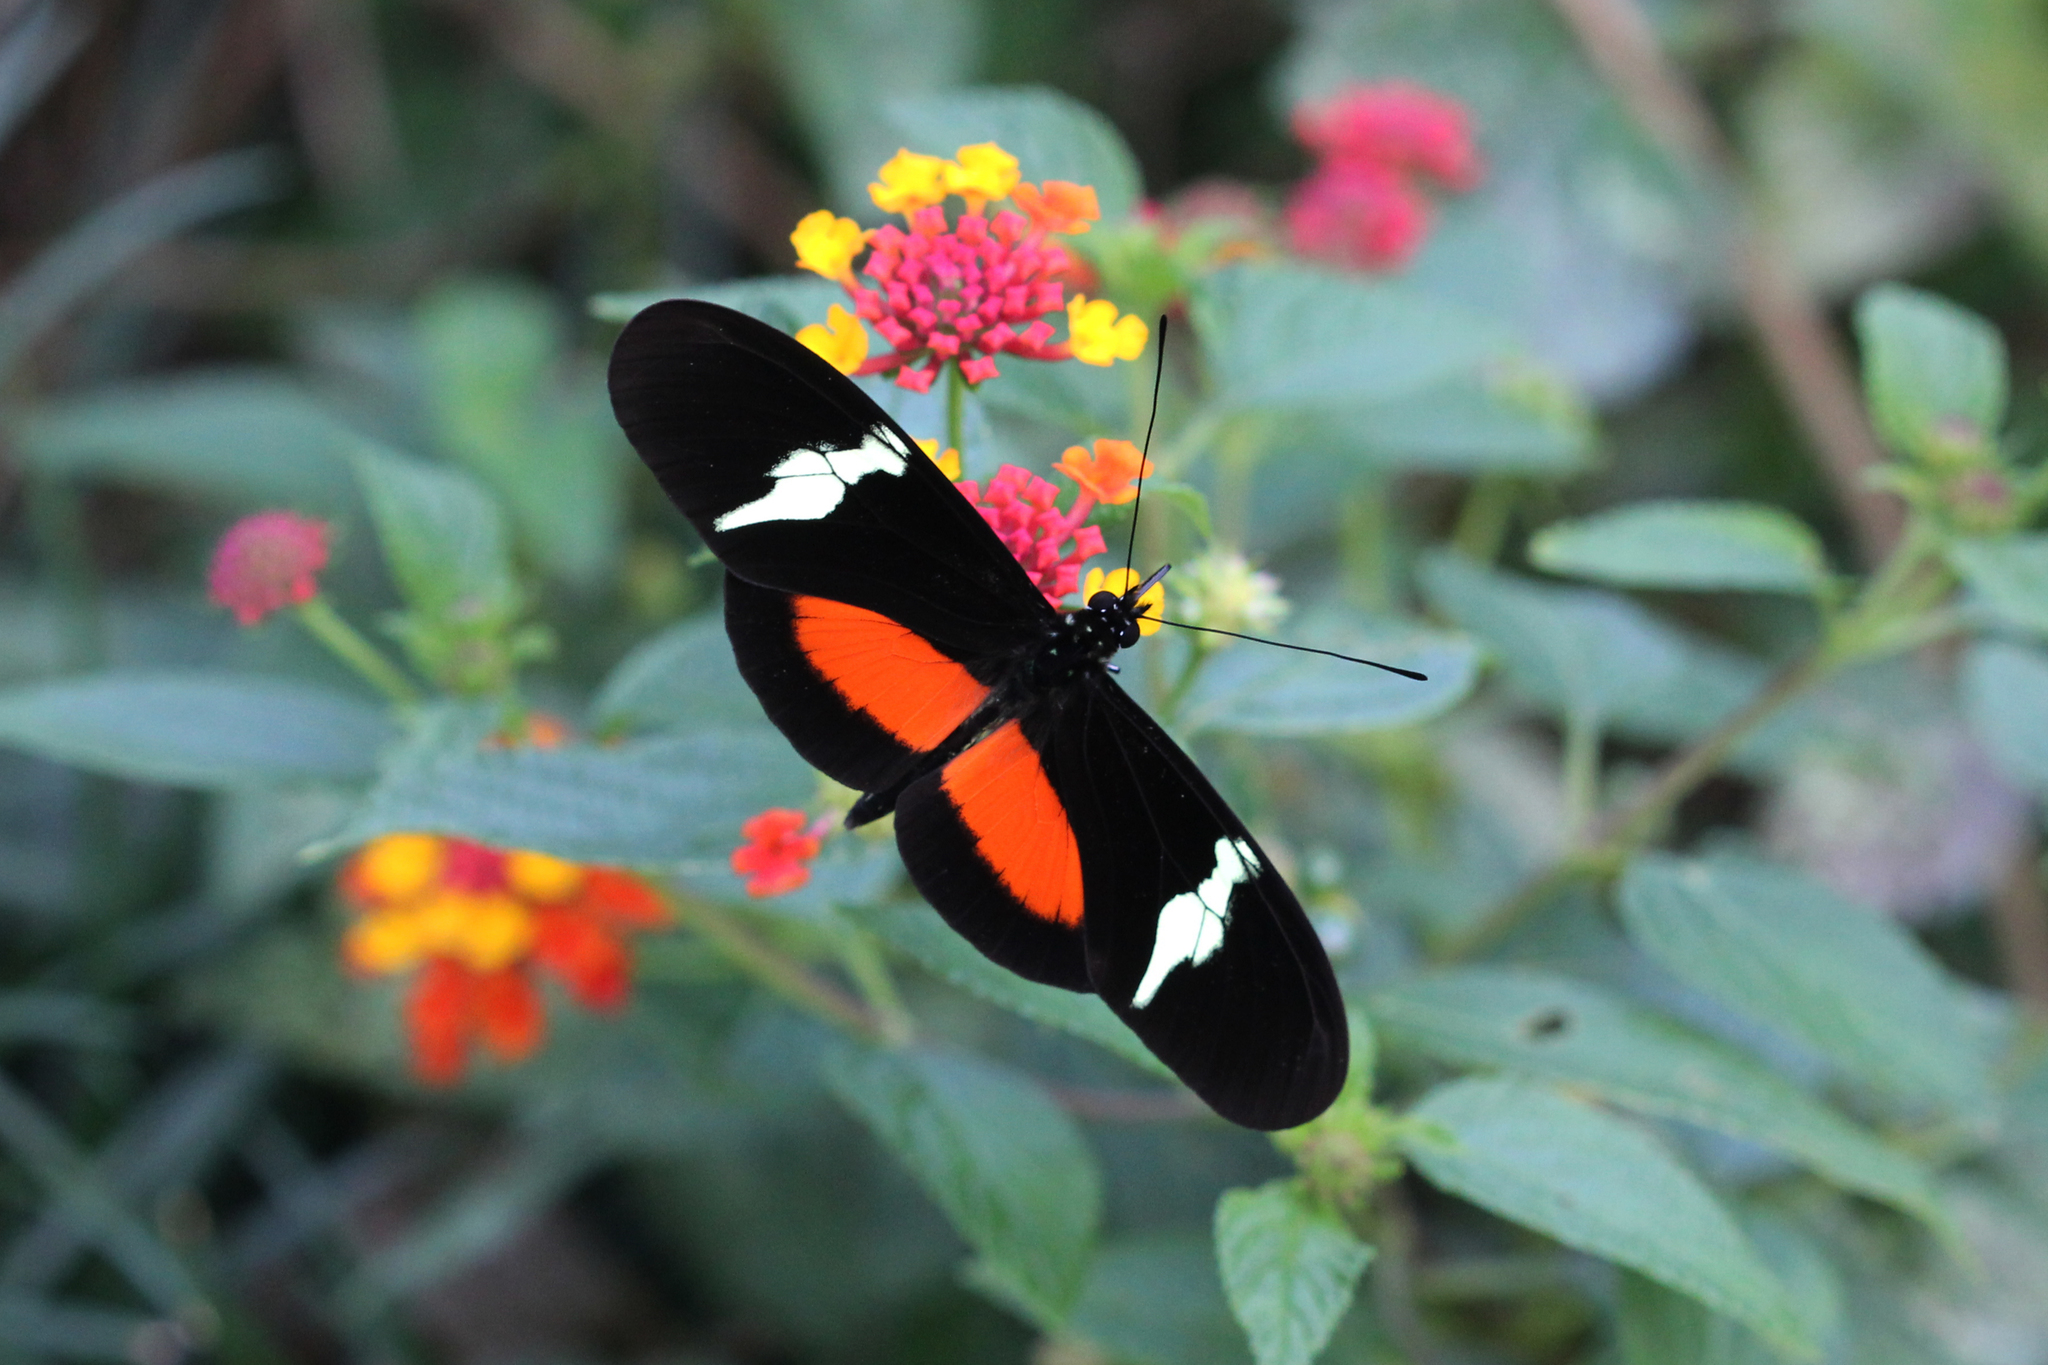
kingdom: Animalia
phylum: Arthropoda
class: Insecta
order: Lepidoptera
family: Nymphalidae
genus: Heliconius
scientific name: Heliconius clysonymus
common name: Clysonymus longwing
